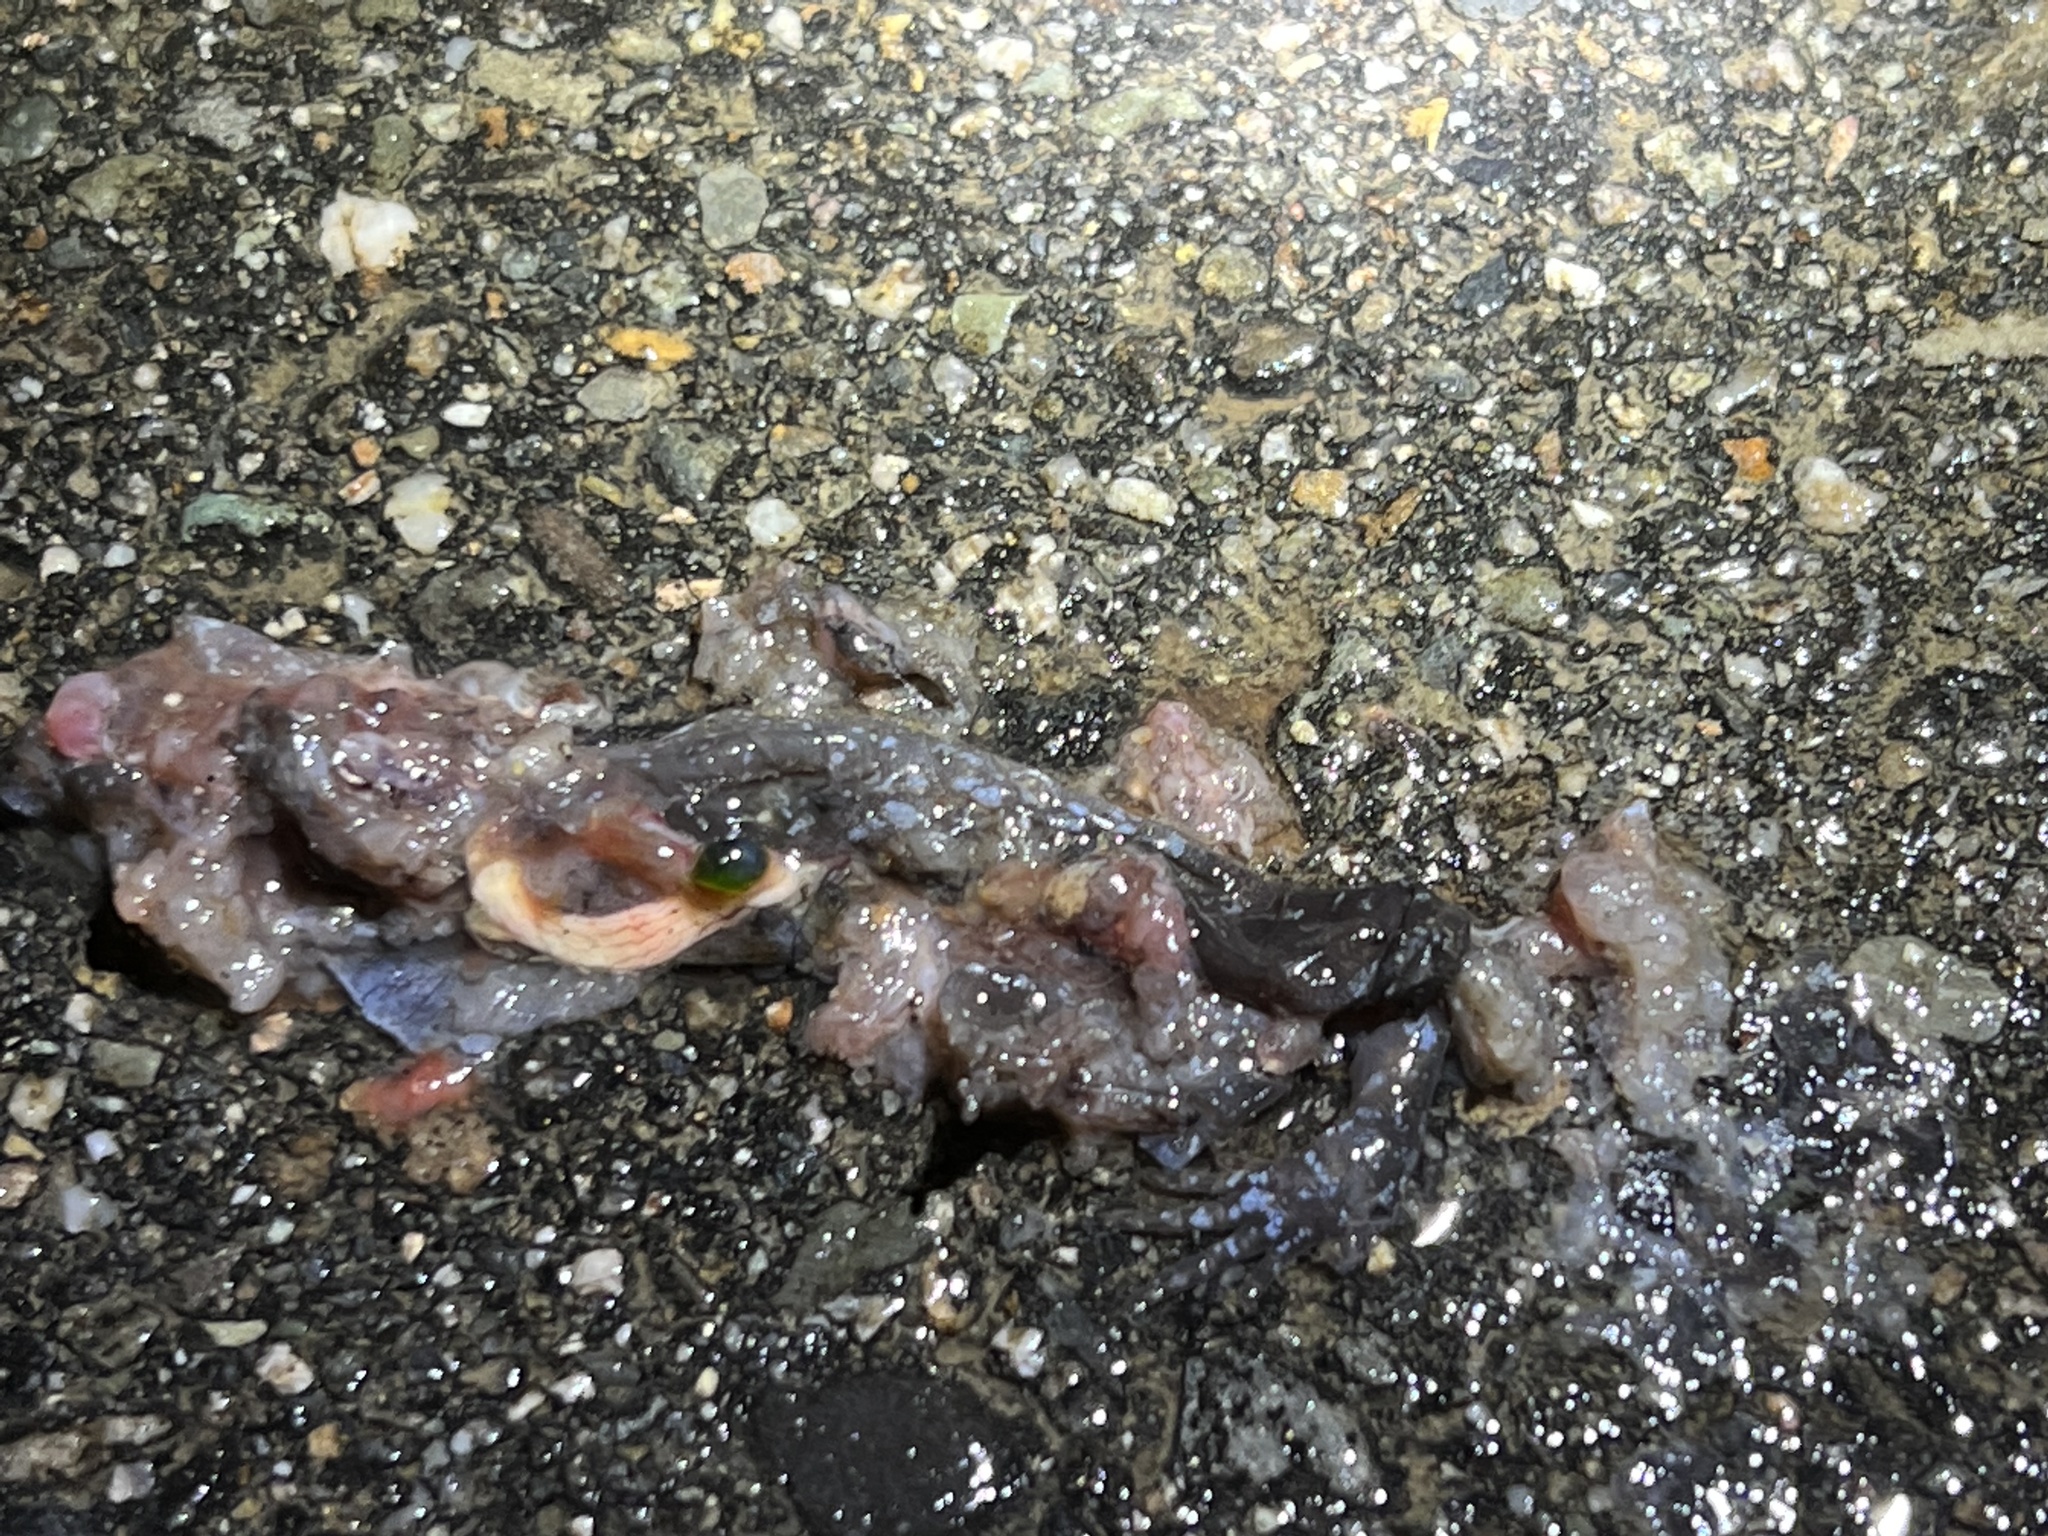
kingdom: Animalia
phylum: Chordata
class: Amphibia
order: Caudata
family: Ambystomatidae
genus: Ambystoma
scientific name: Ambystoma laterale
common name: Blue-spotted salamander
